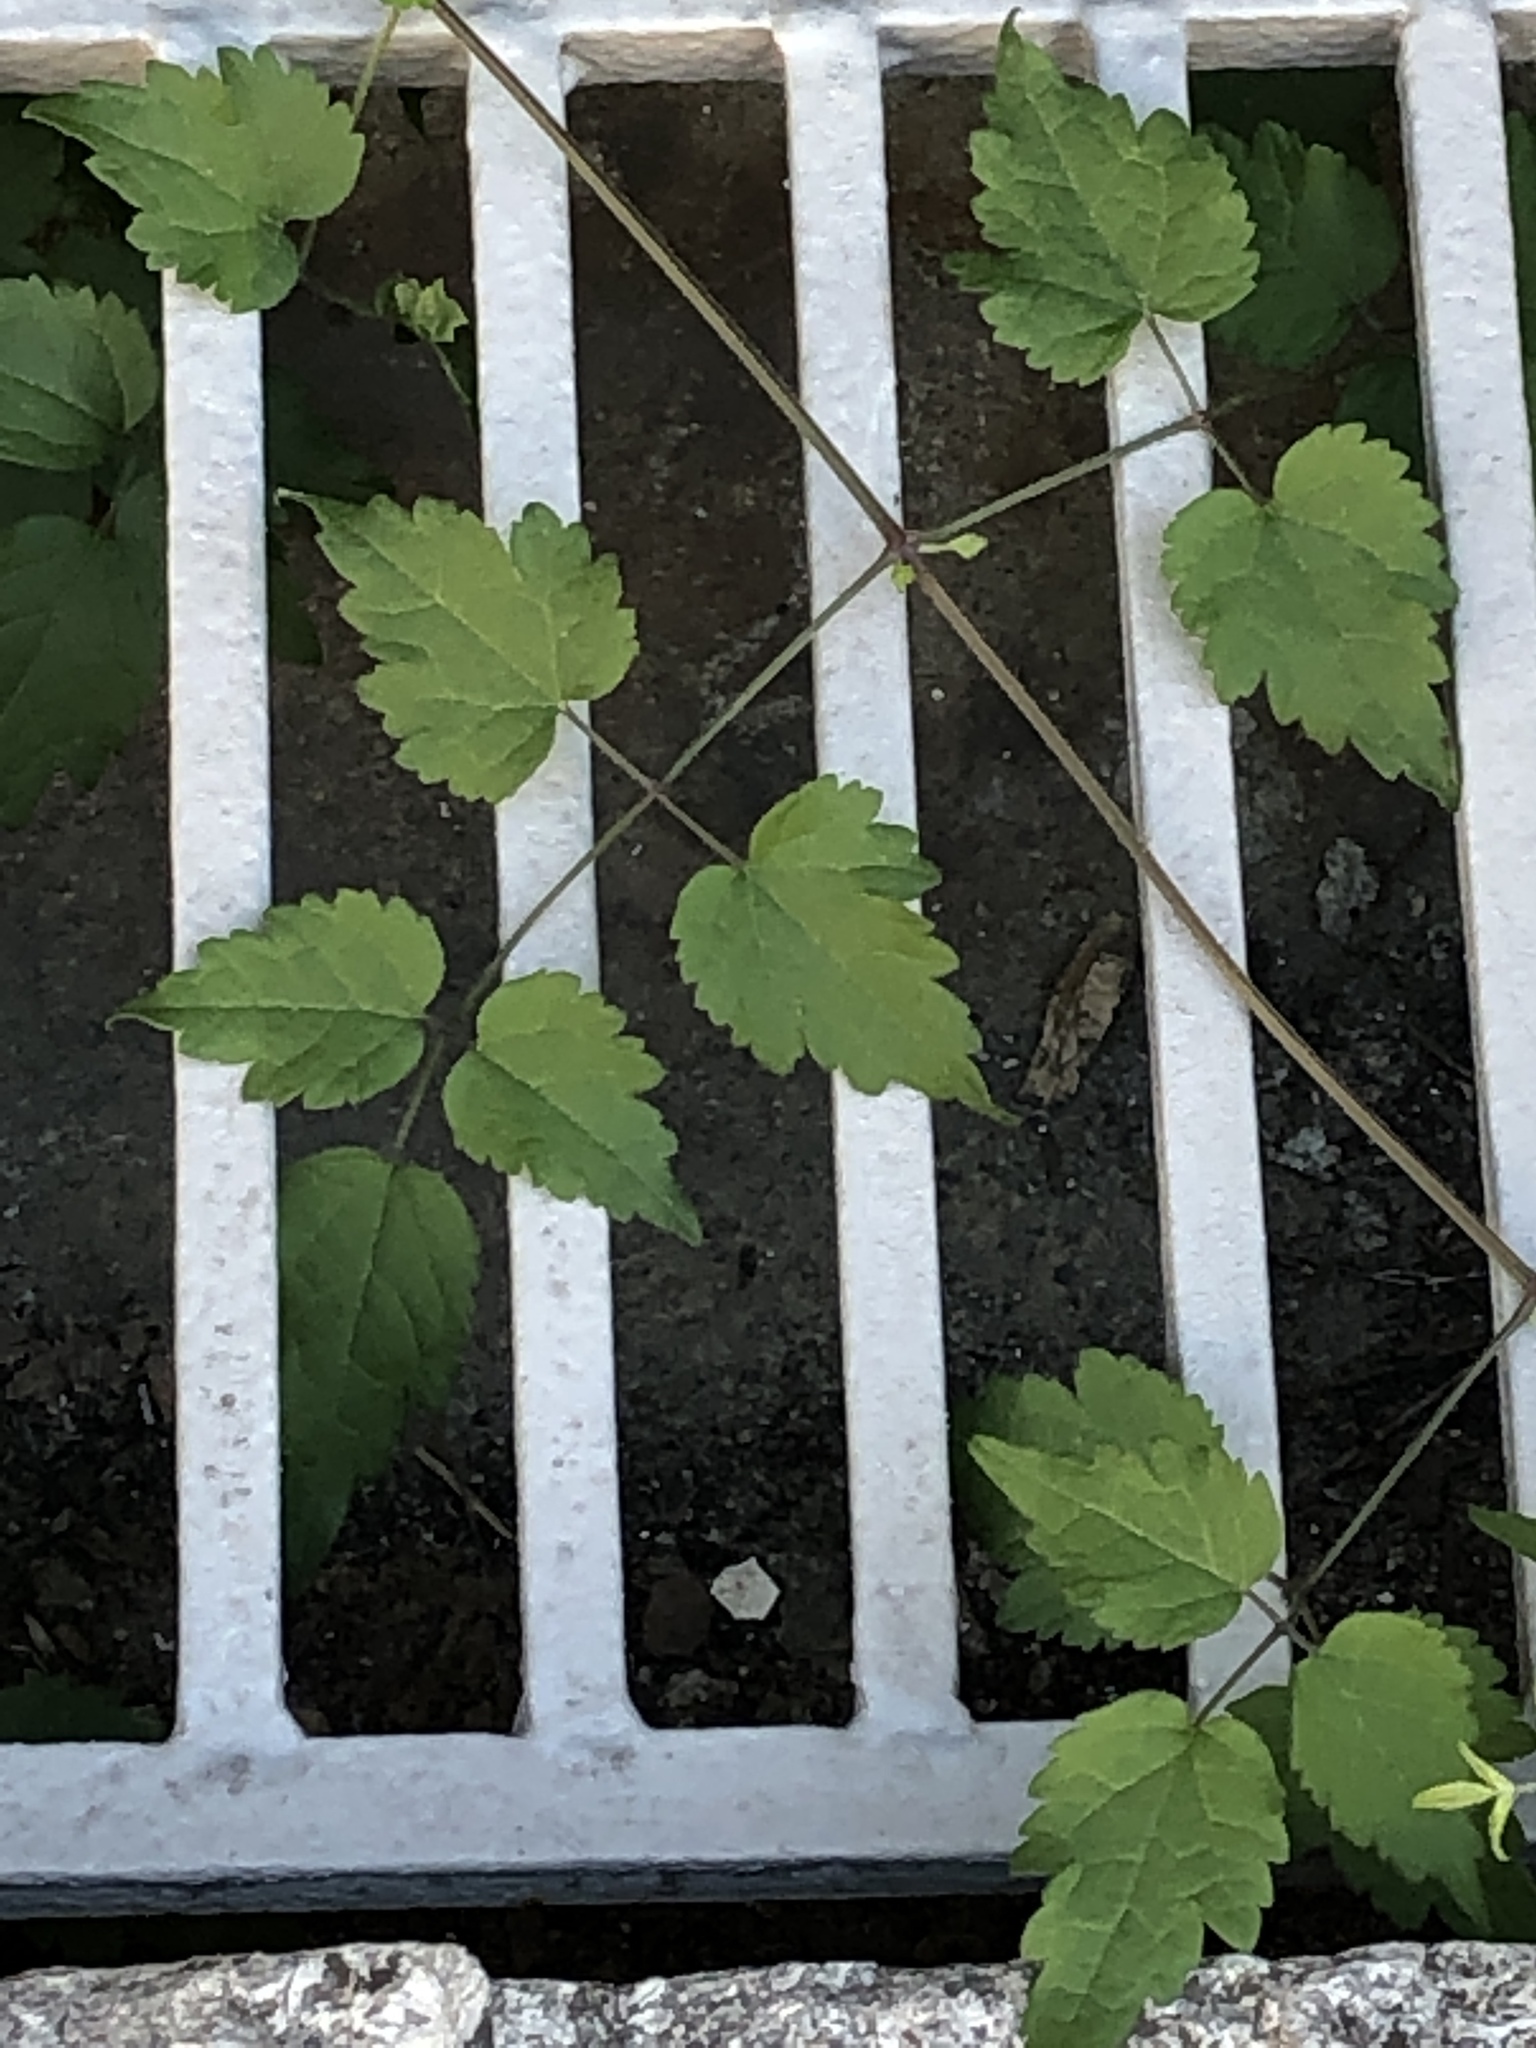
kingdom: Plantae
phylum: Tracheophyta
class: Magnoliopsida
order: Ranunculales
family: Ranunculaceae
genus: Clematis
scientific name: Clematis vitalba
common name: Evergreen clematis
